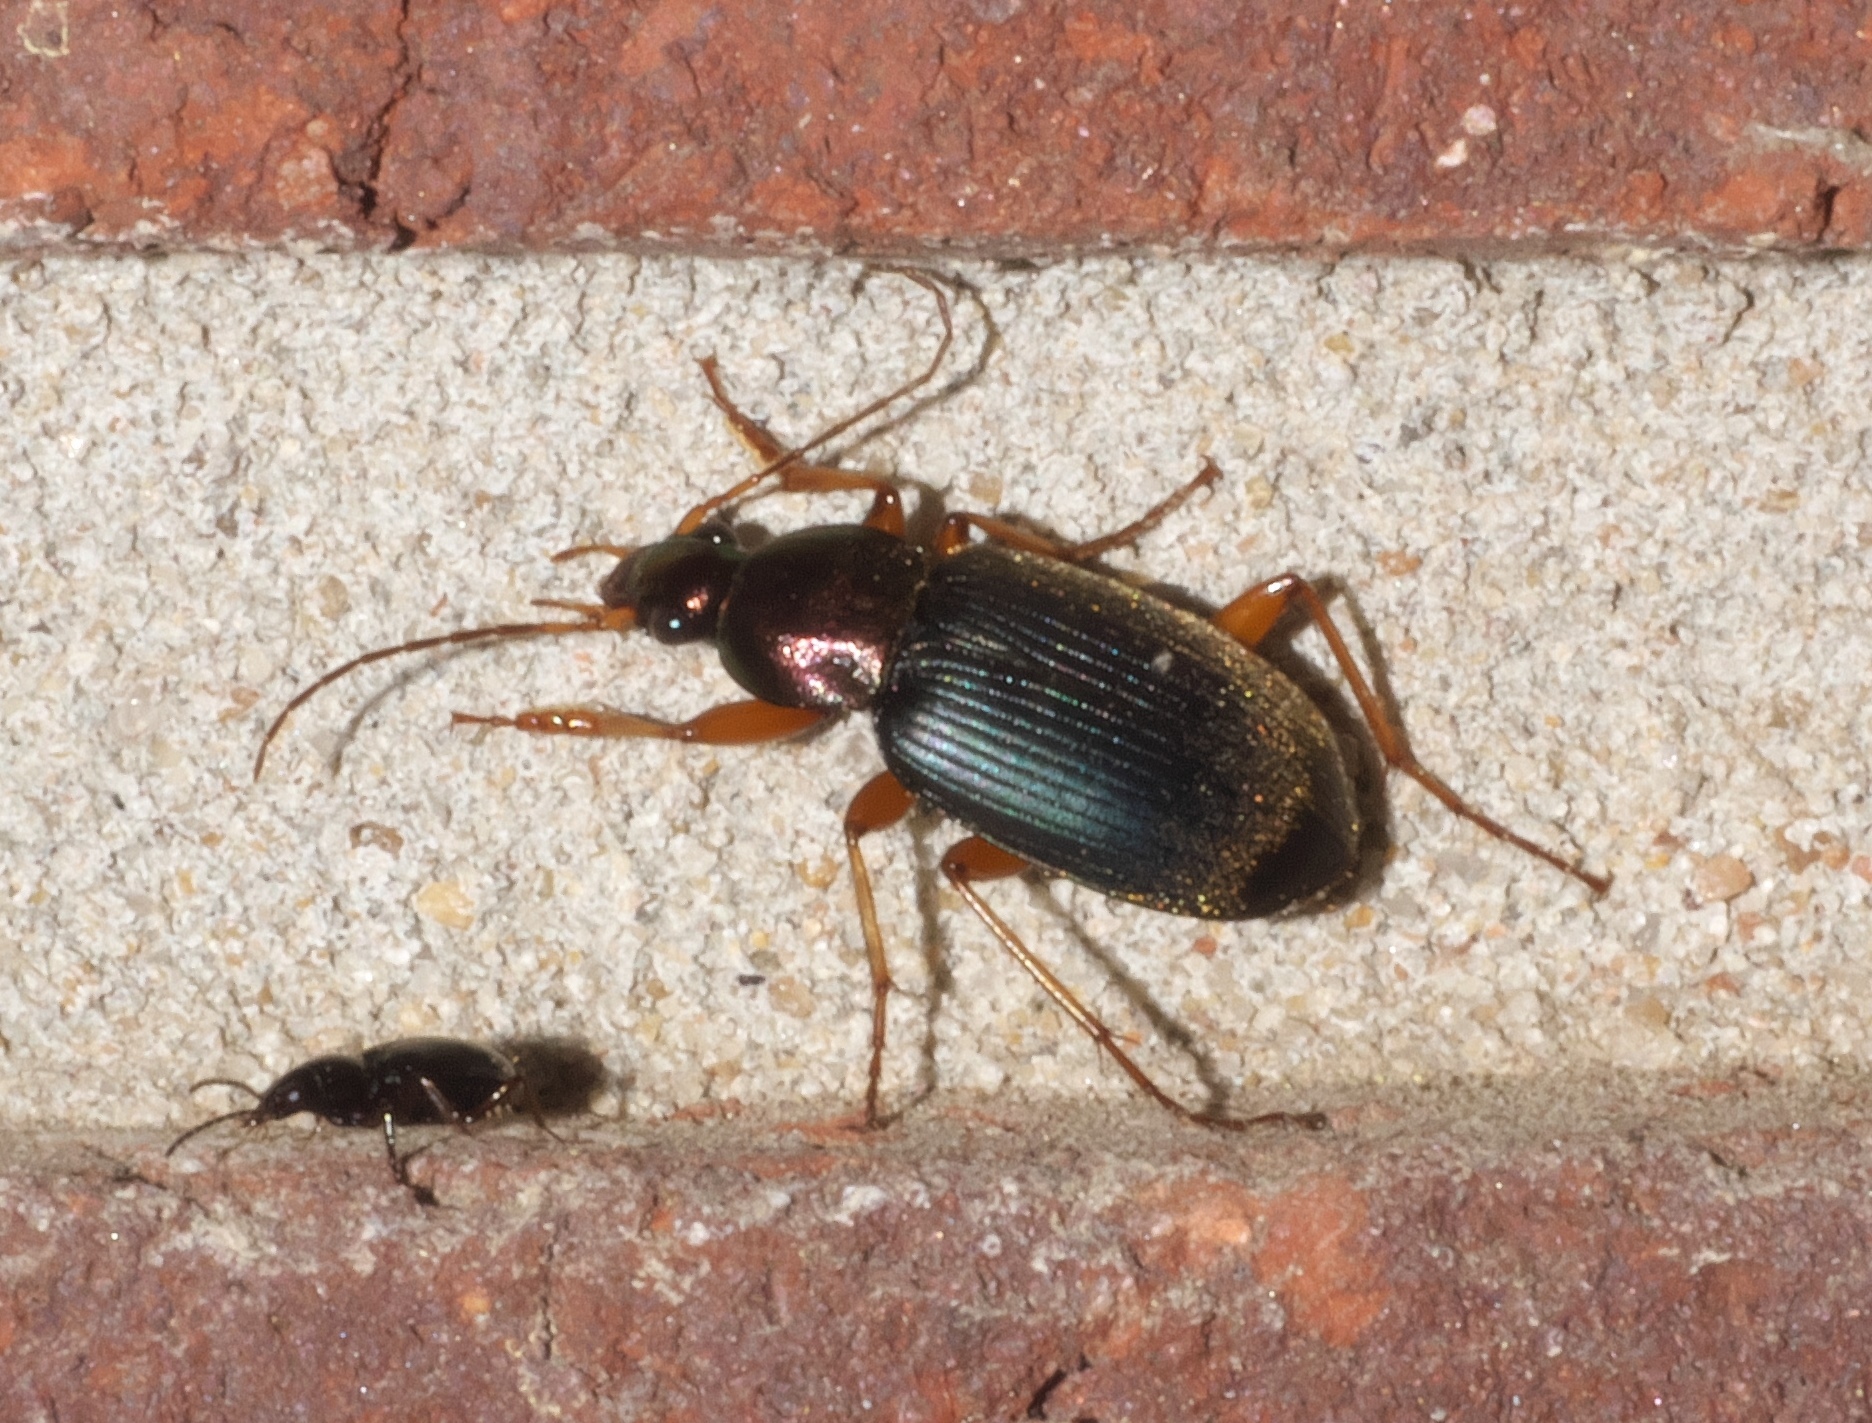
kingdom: Animalia
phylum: Arthropoda
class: Insecta
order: Coleoptera
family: Carabidae
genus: Chlaenius
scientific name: Chlaenius tricolor
